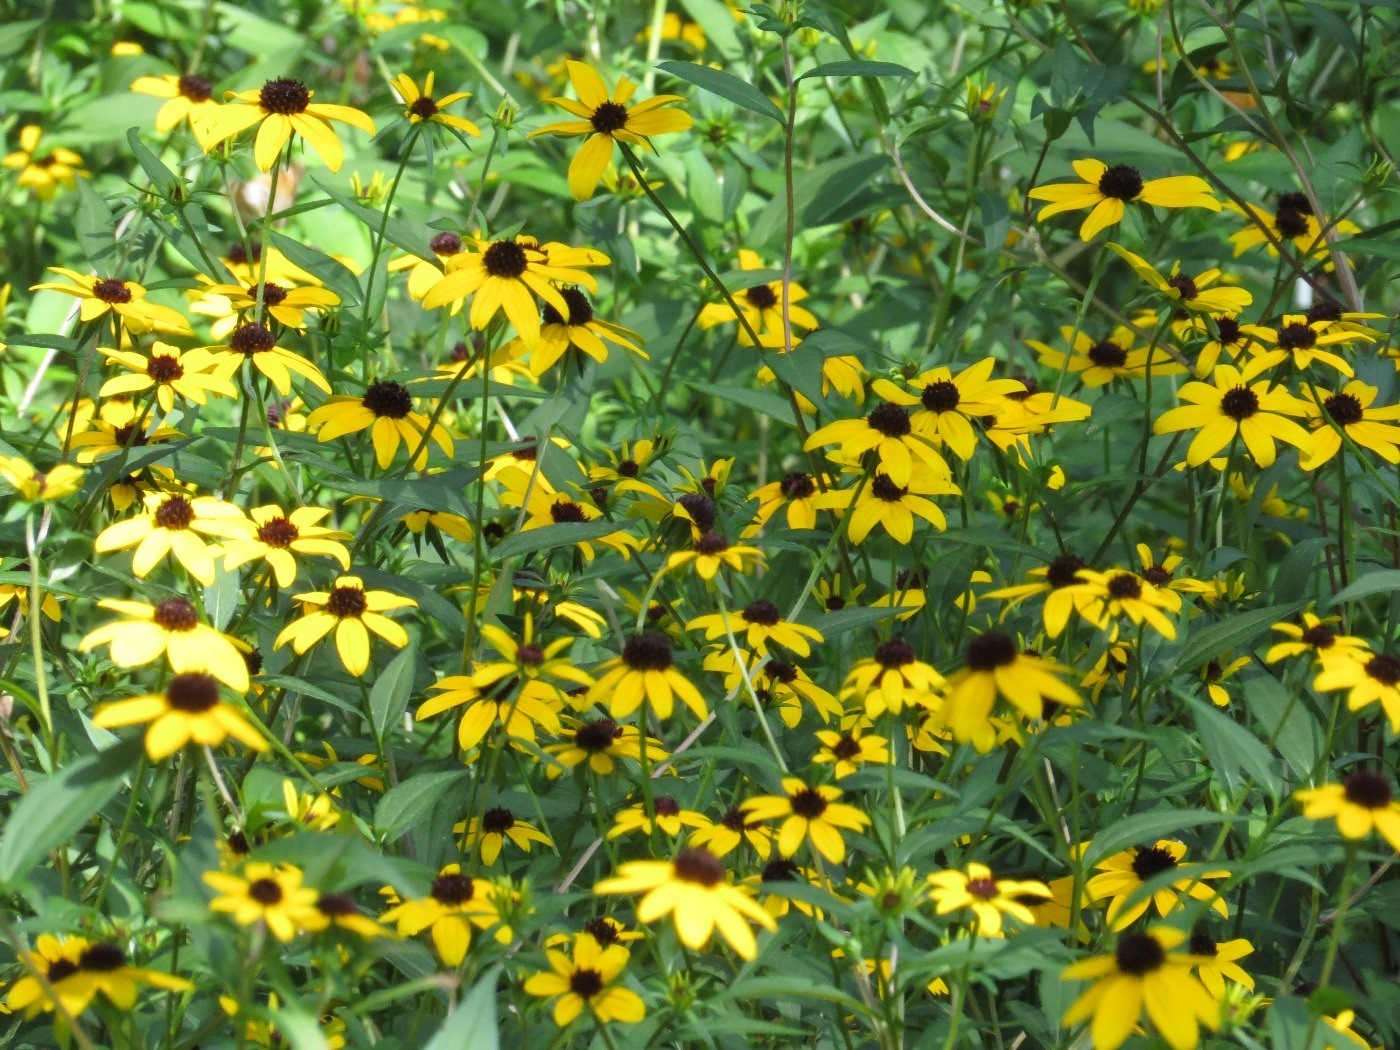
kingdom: Plantae
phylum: Tracheophyta
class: Magnoliopsida
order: Asterales
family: Asteraceae
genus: Rudbeckia
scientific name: Rudbeckia triloba
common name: Thin-leaved coneflower
